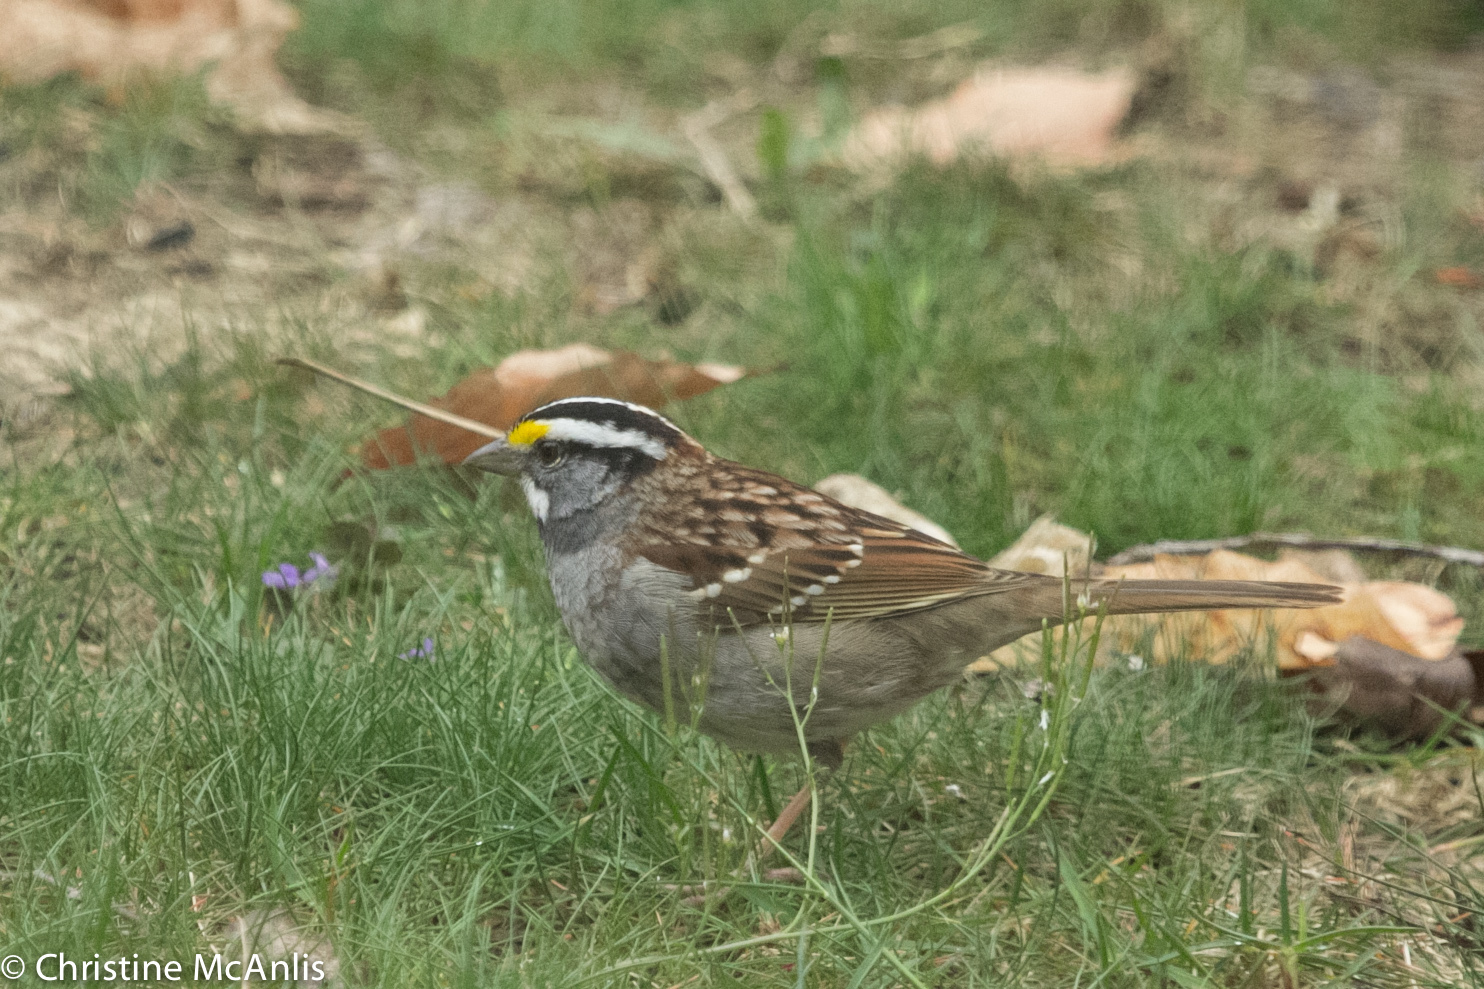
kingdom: Animalia
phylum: Chordata
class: Aves
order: Passeriformes
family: Passerellidae
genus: Zonotrichia
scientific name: Zonotrichia albicollis
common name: White-throated sparrow
